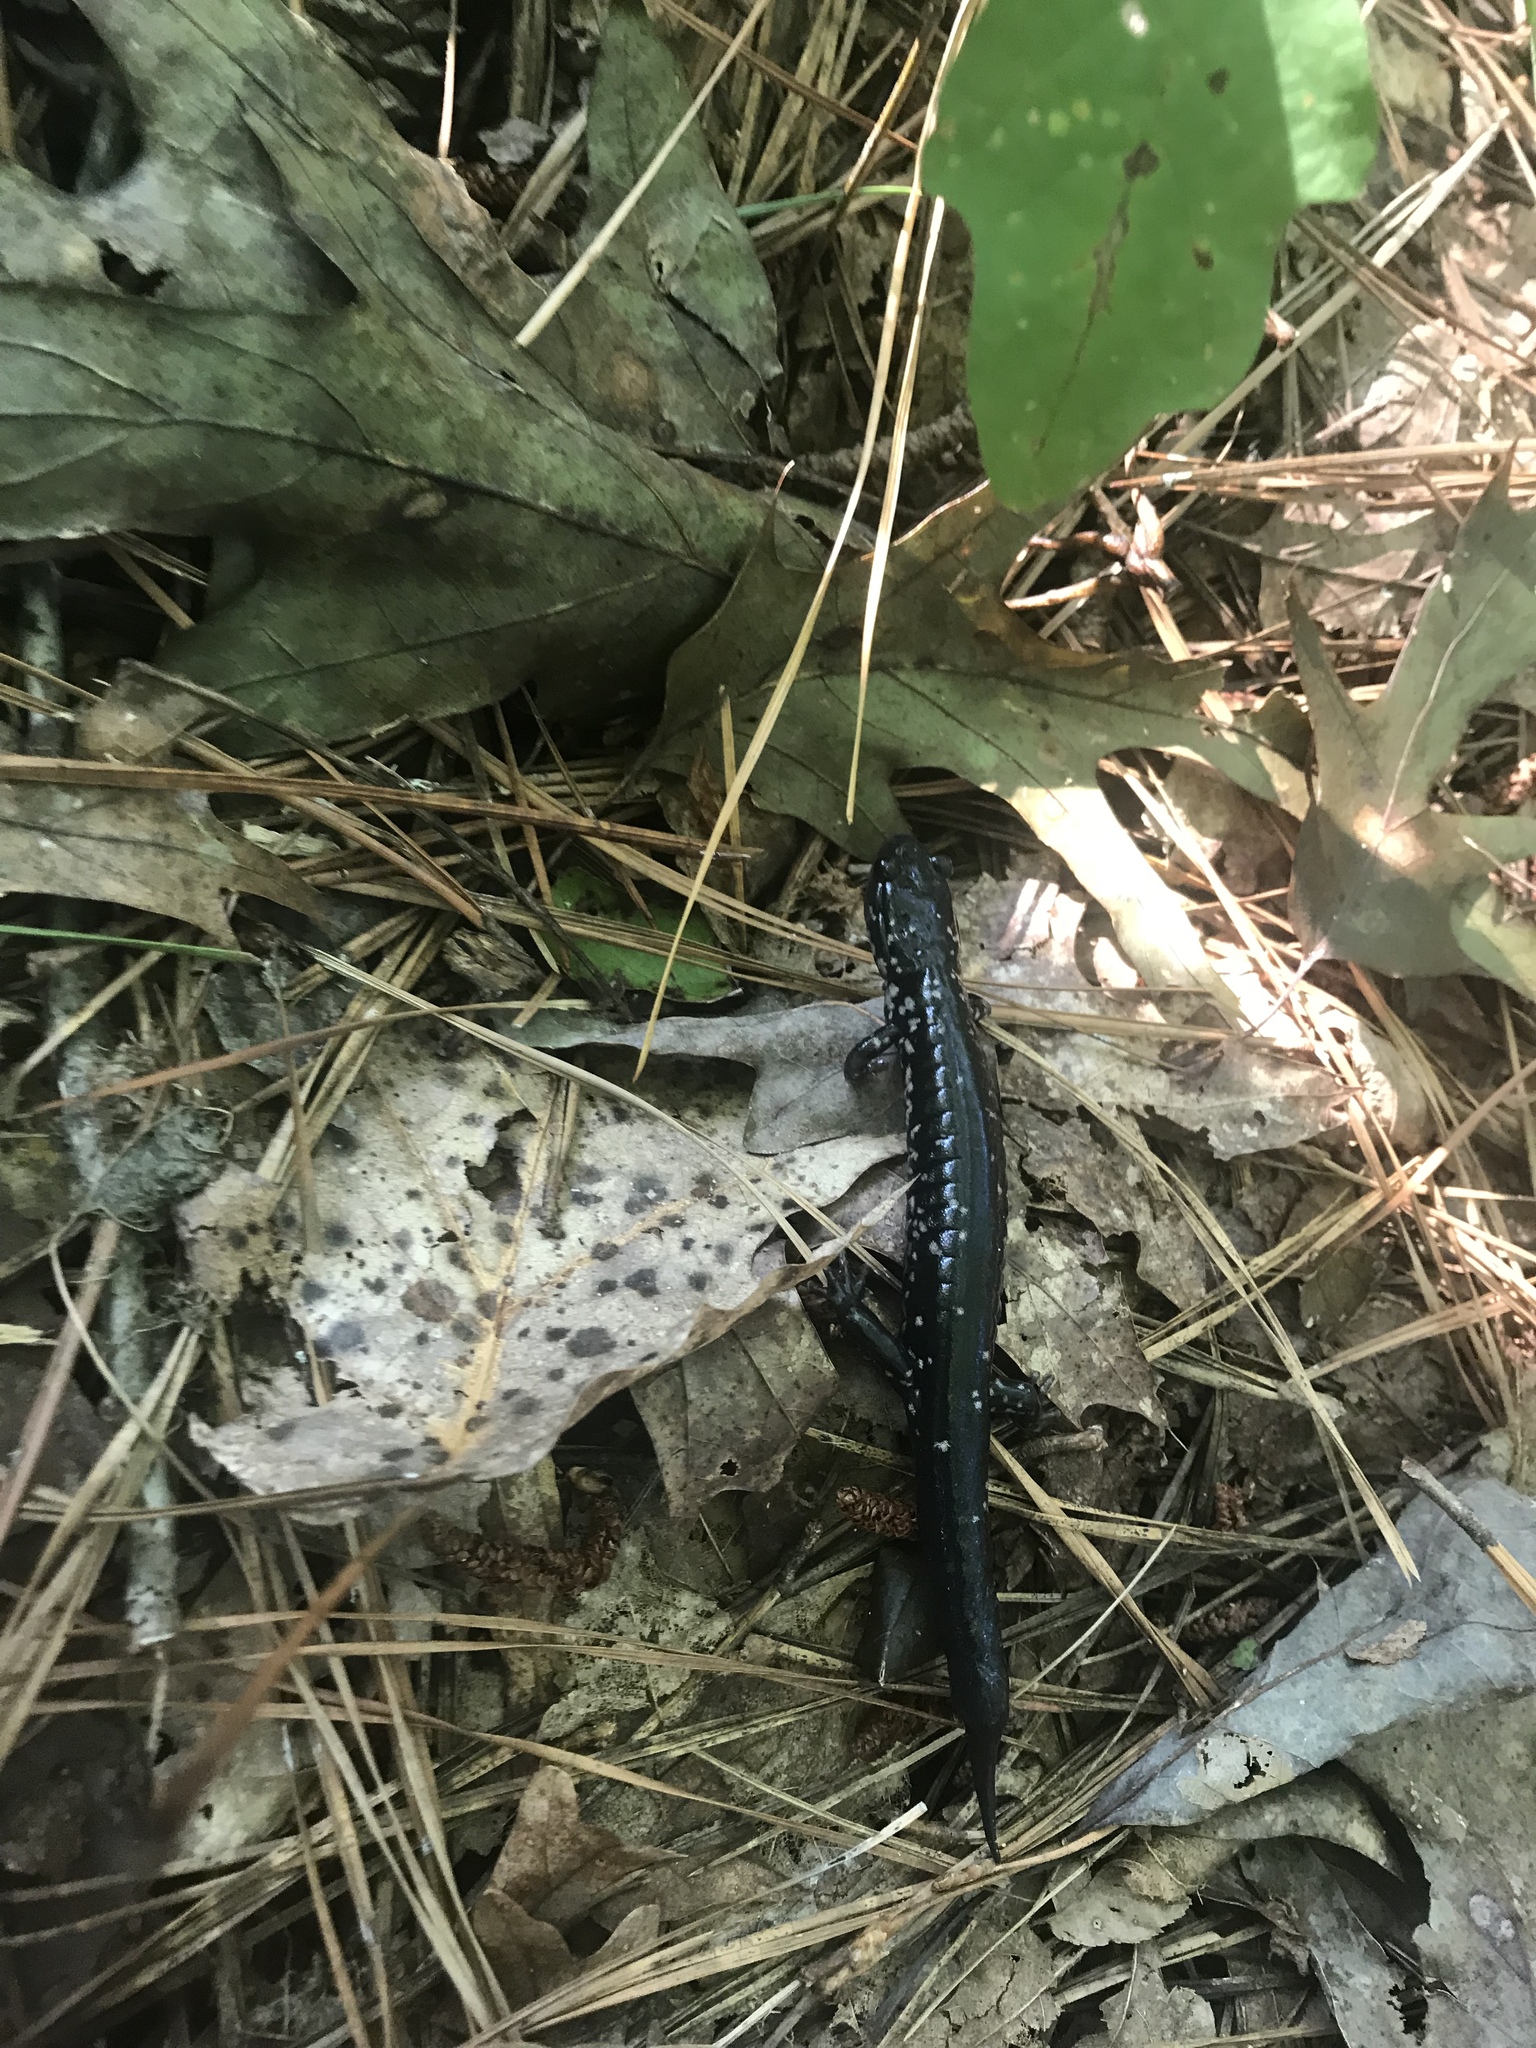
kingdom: Animalia
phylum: Chordata
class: Amphibia
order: Caudata
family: Plethodontidae
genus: Plethodon
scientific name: Plethodon cylindraceus
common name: White-spotted slimy salamander
